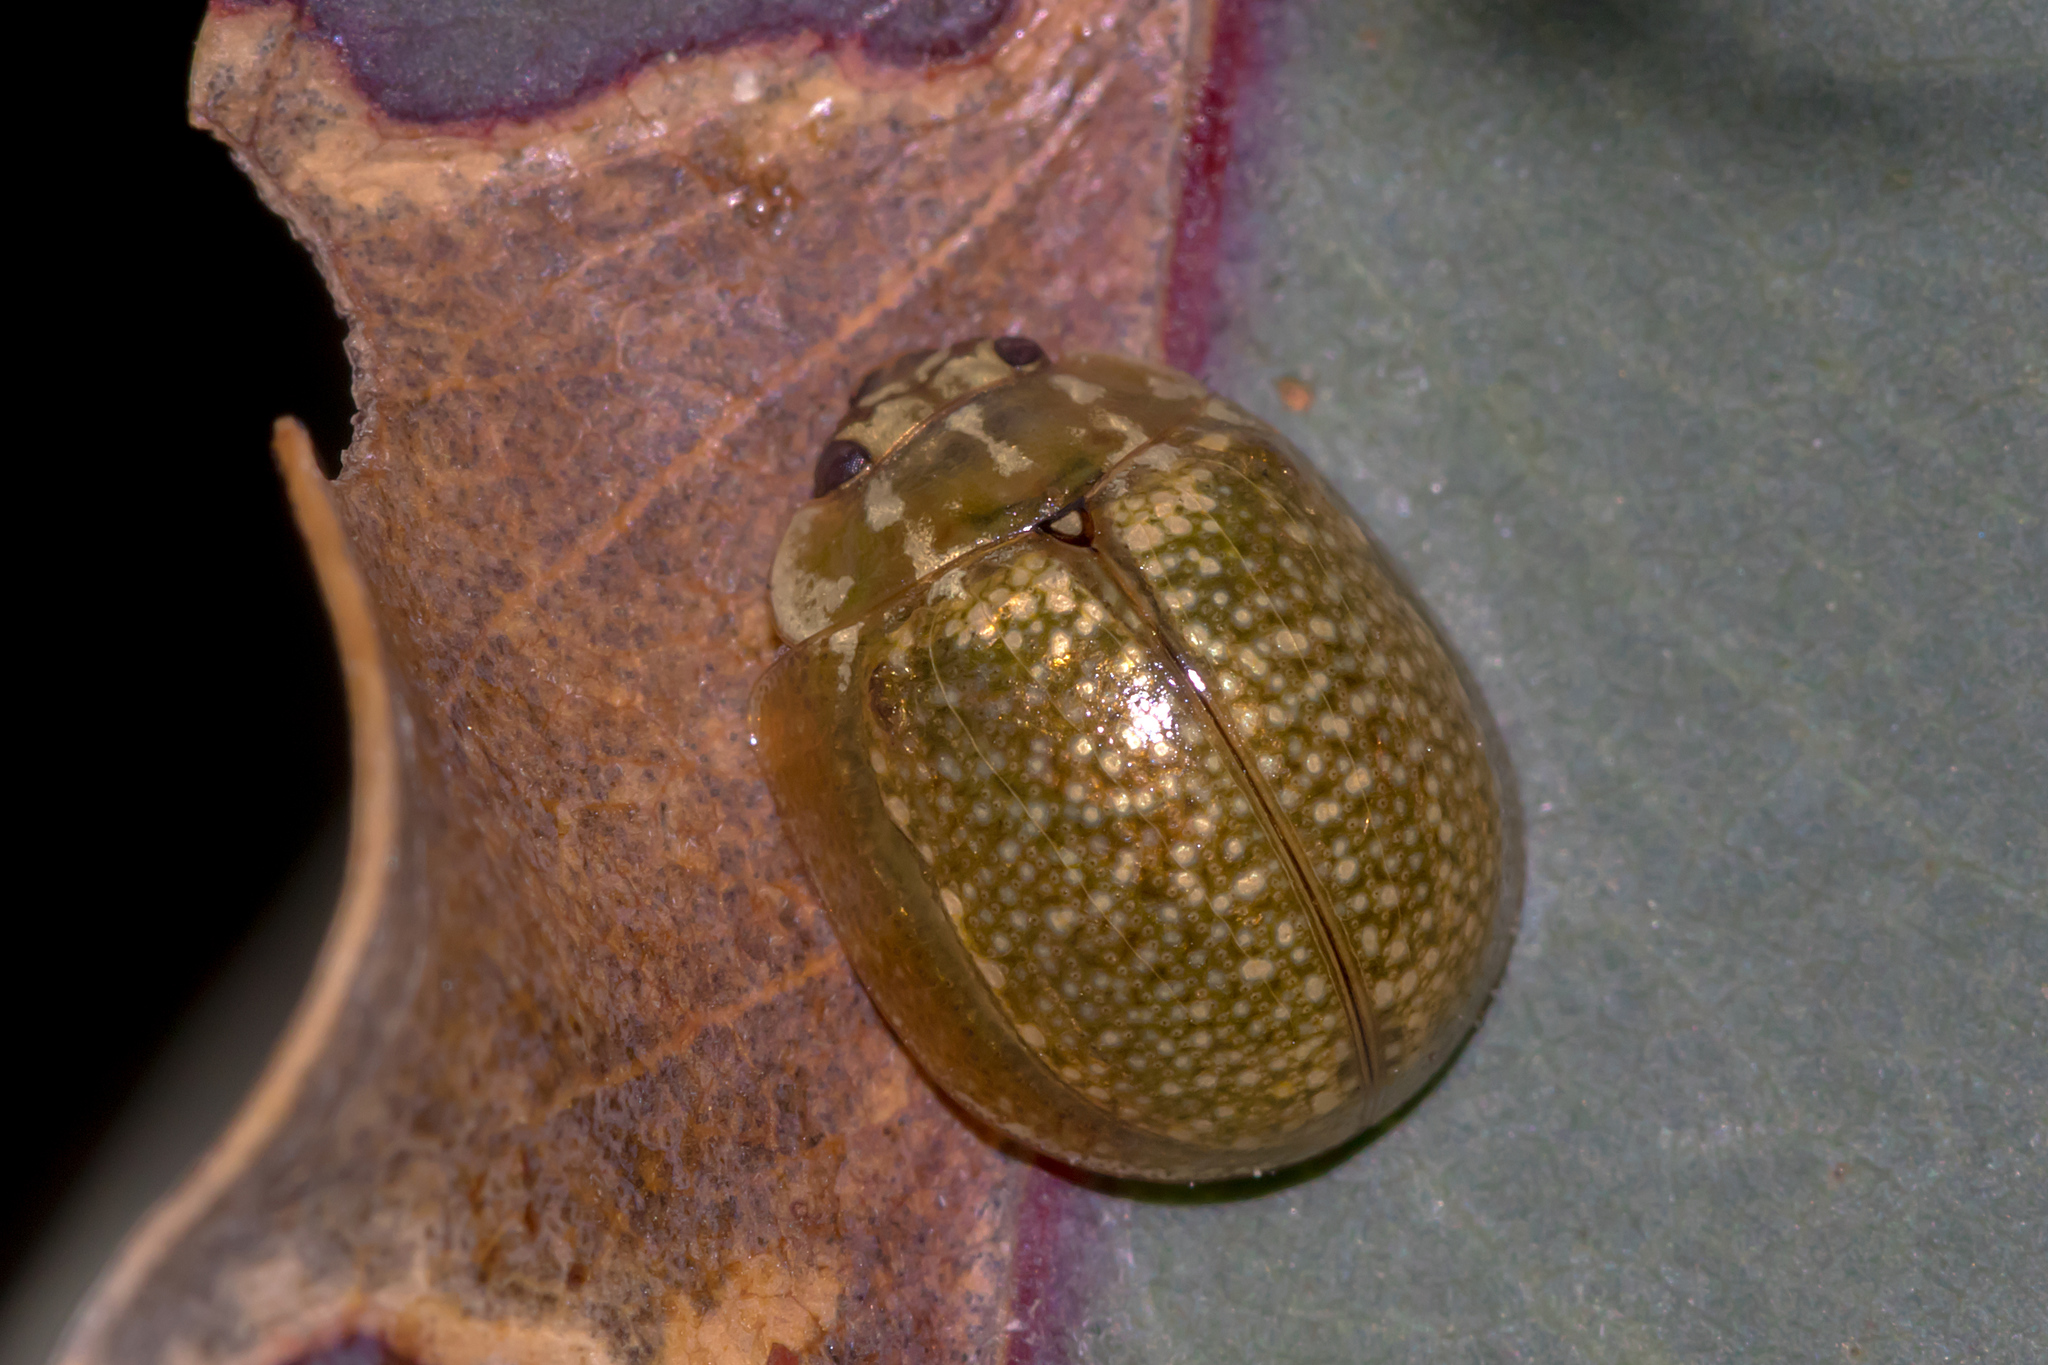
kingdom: Animalia
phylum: Arthropoda
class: Insecta
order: Coleoptera
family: Chrysomelidae
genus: Paropsisterna
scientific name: Paropsisterna cloelia
